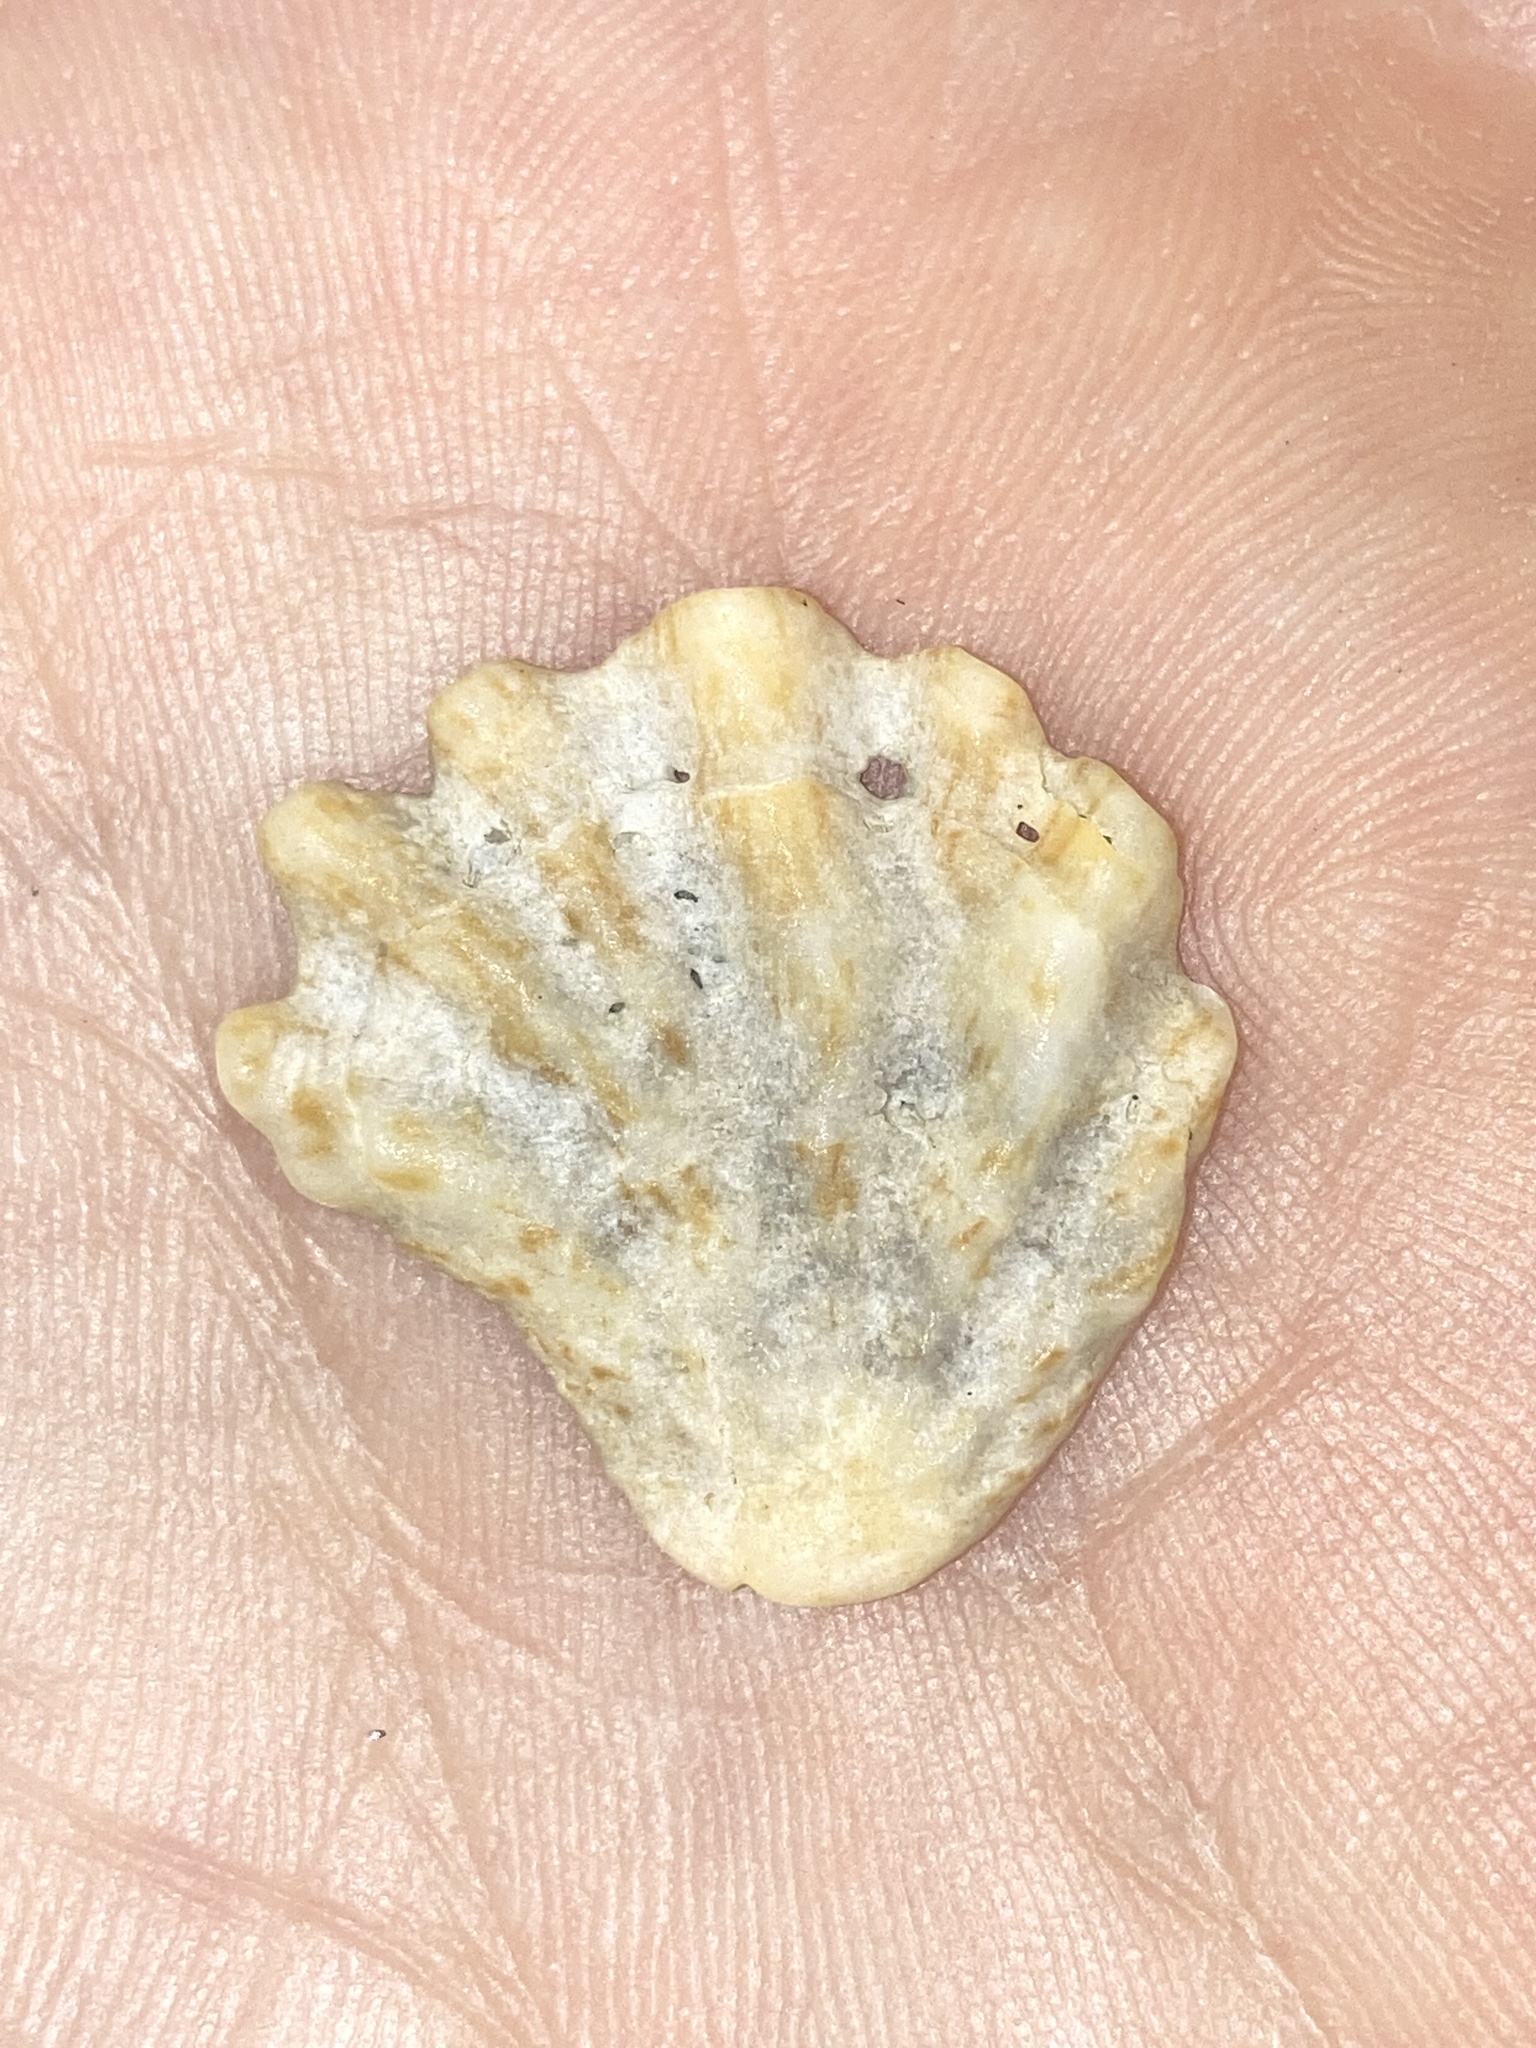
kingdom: Animalia
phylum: Mollusca
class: Bivalvia
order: Pectinida
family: Plicatulidae
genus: Plicatula
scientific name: Plicatula gibbosa
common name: Atlantic kitten's paw
